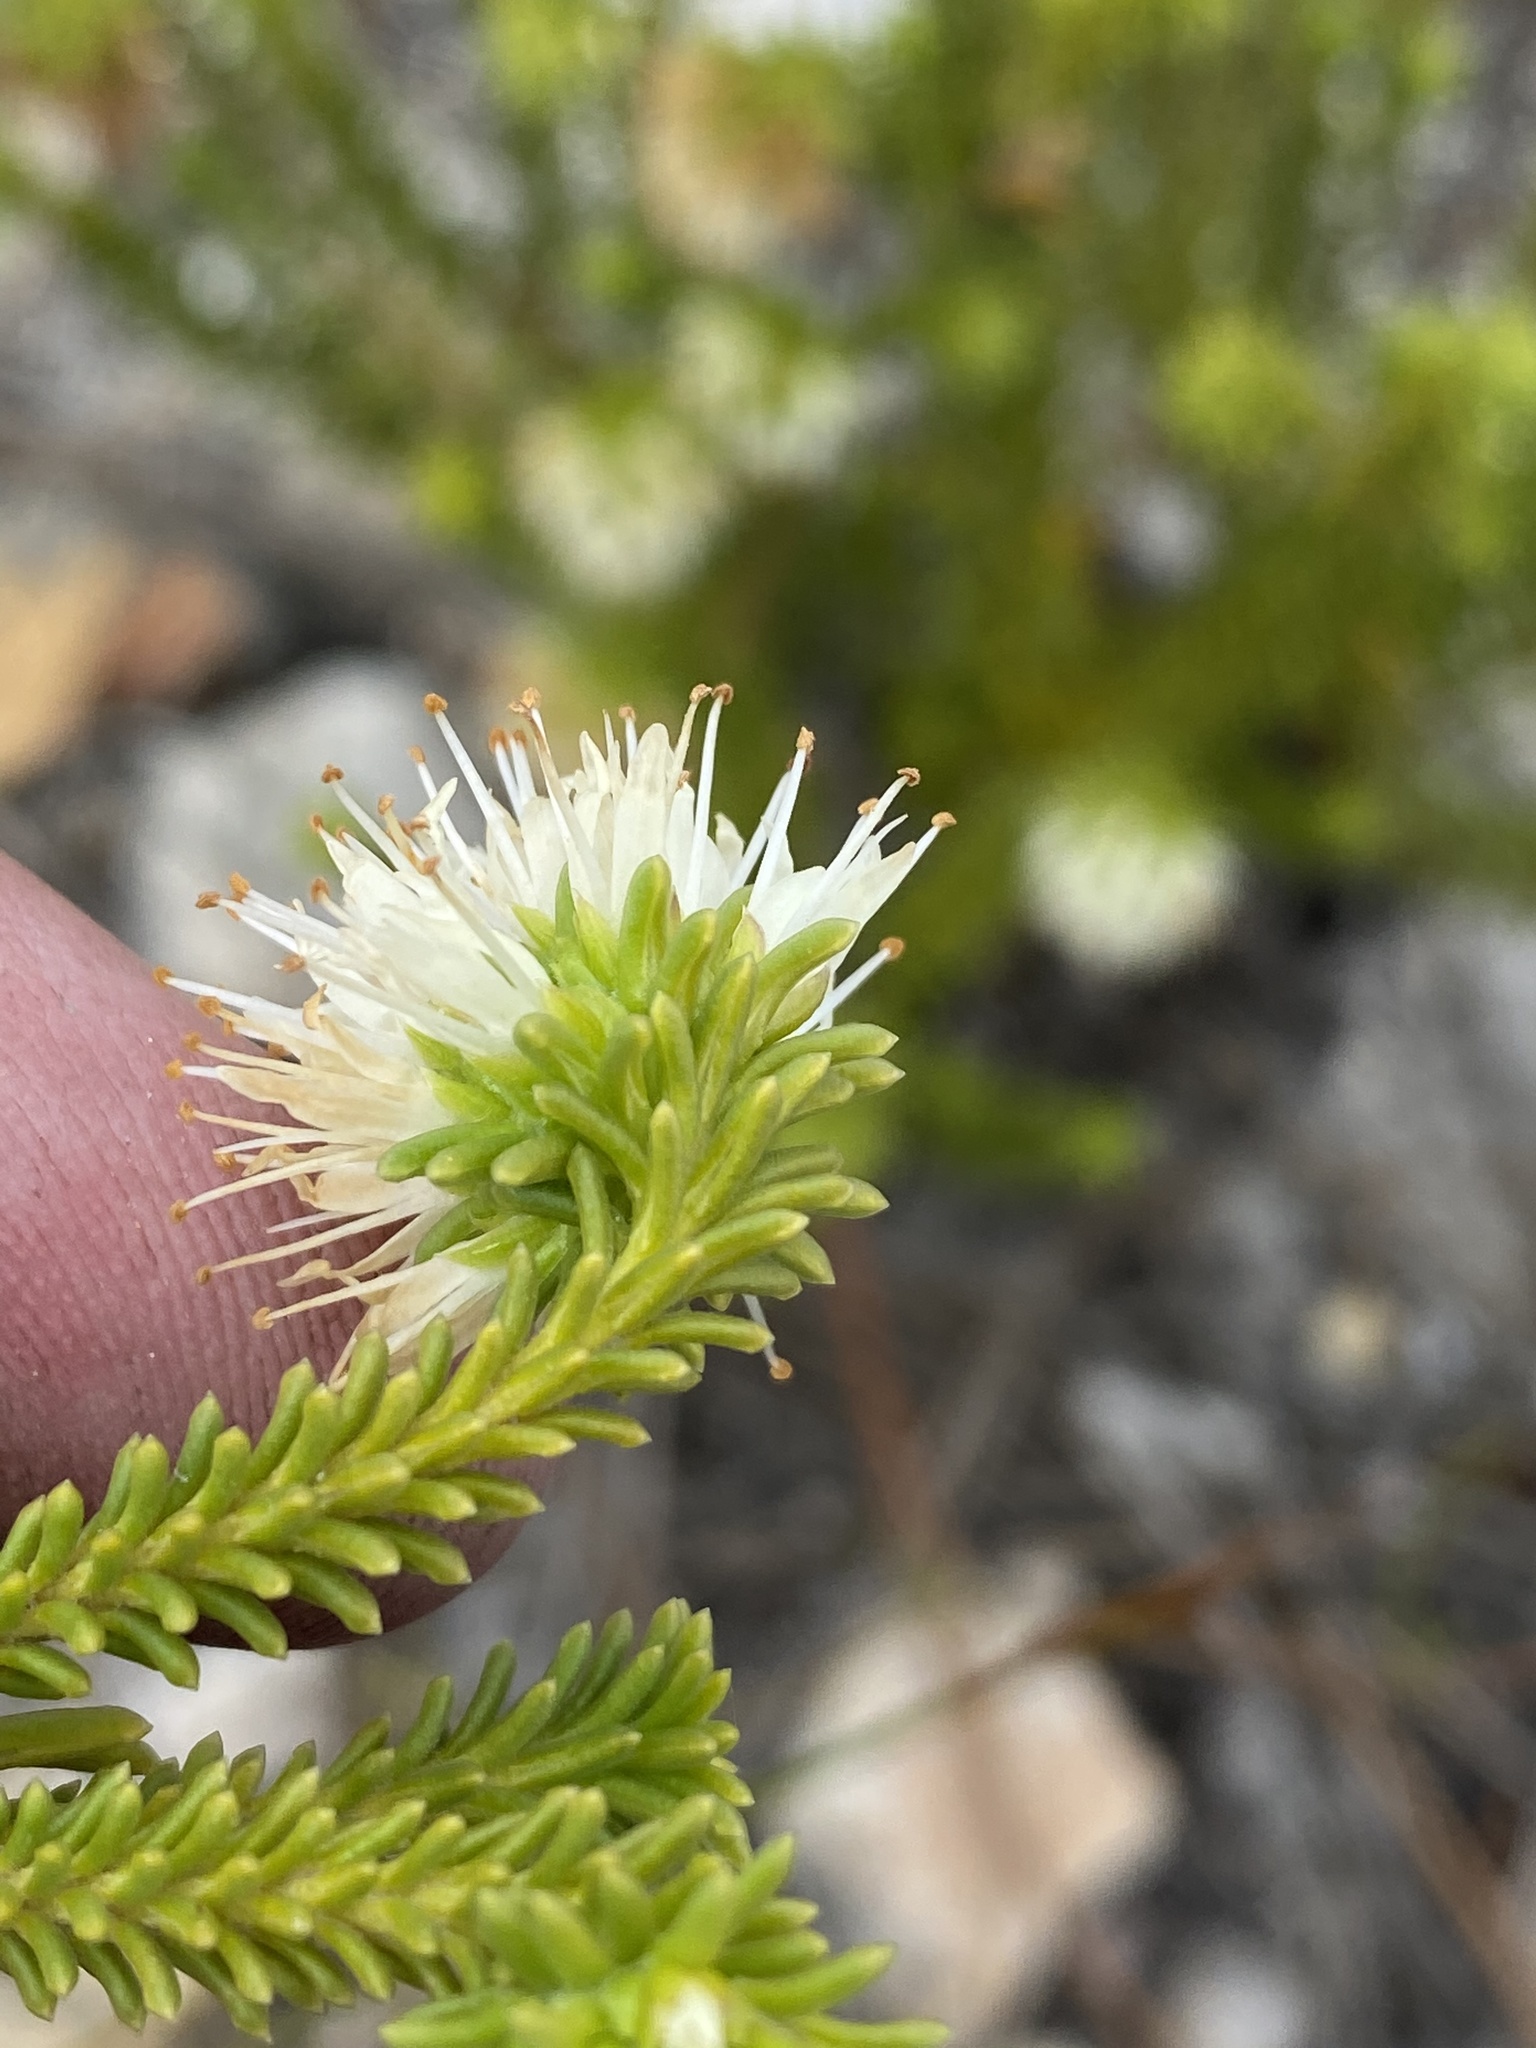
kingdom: Plantae
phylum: Tracheophyta
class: Magnoliopsida
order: Lamiales
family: Stilbaceae
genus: Campylostachys
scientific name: Campylostachys cernua
